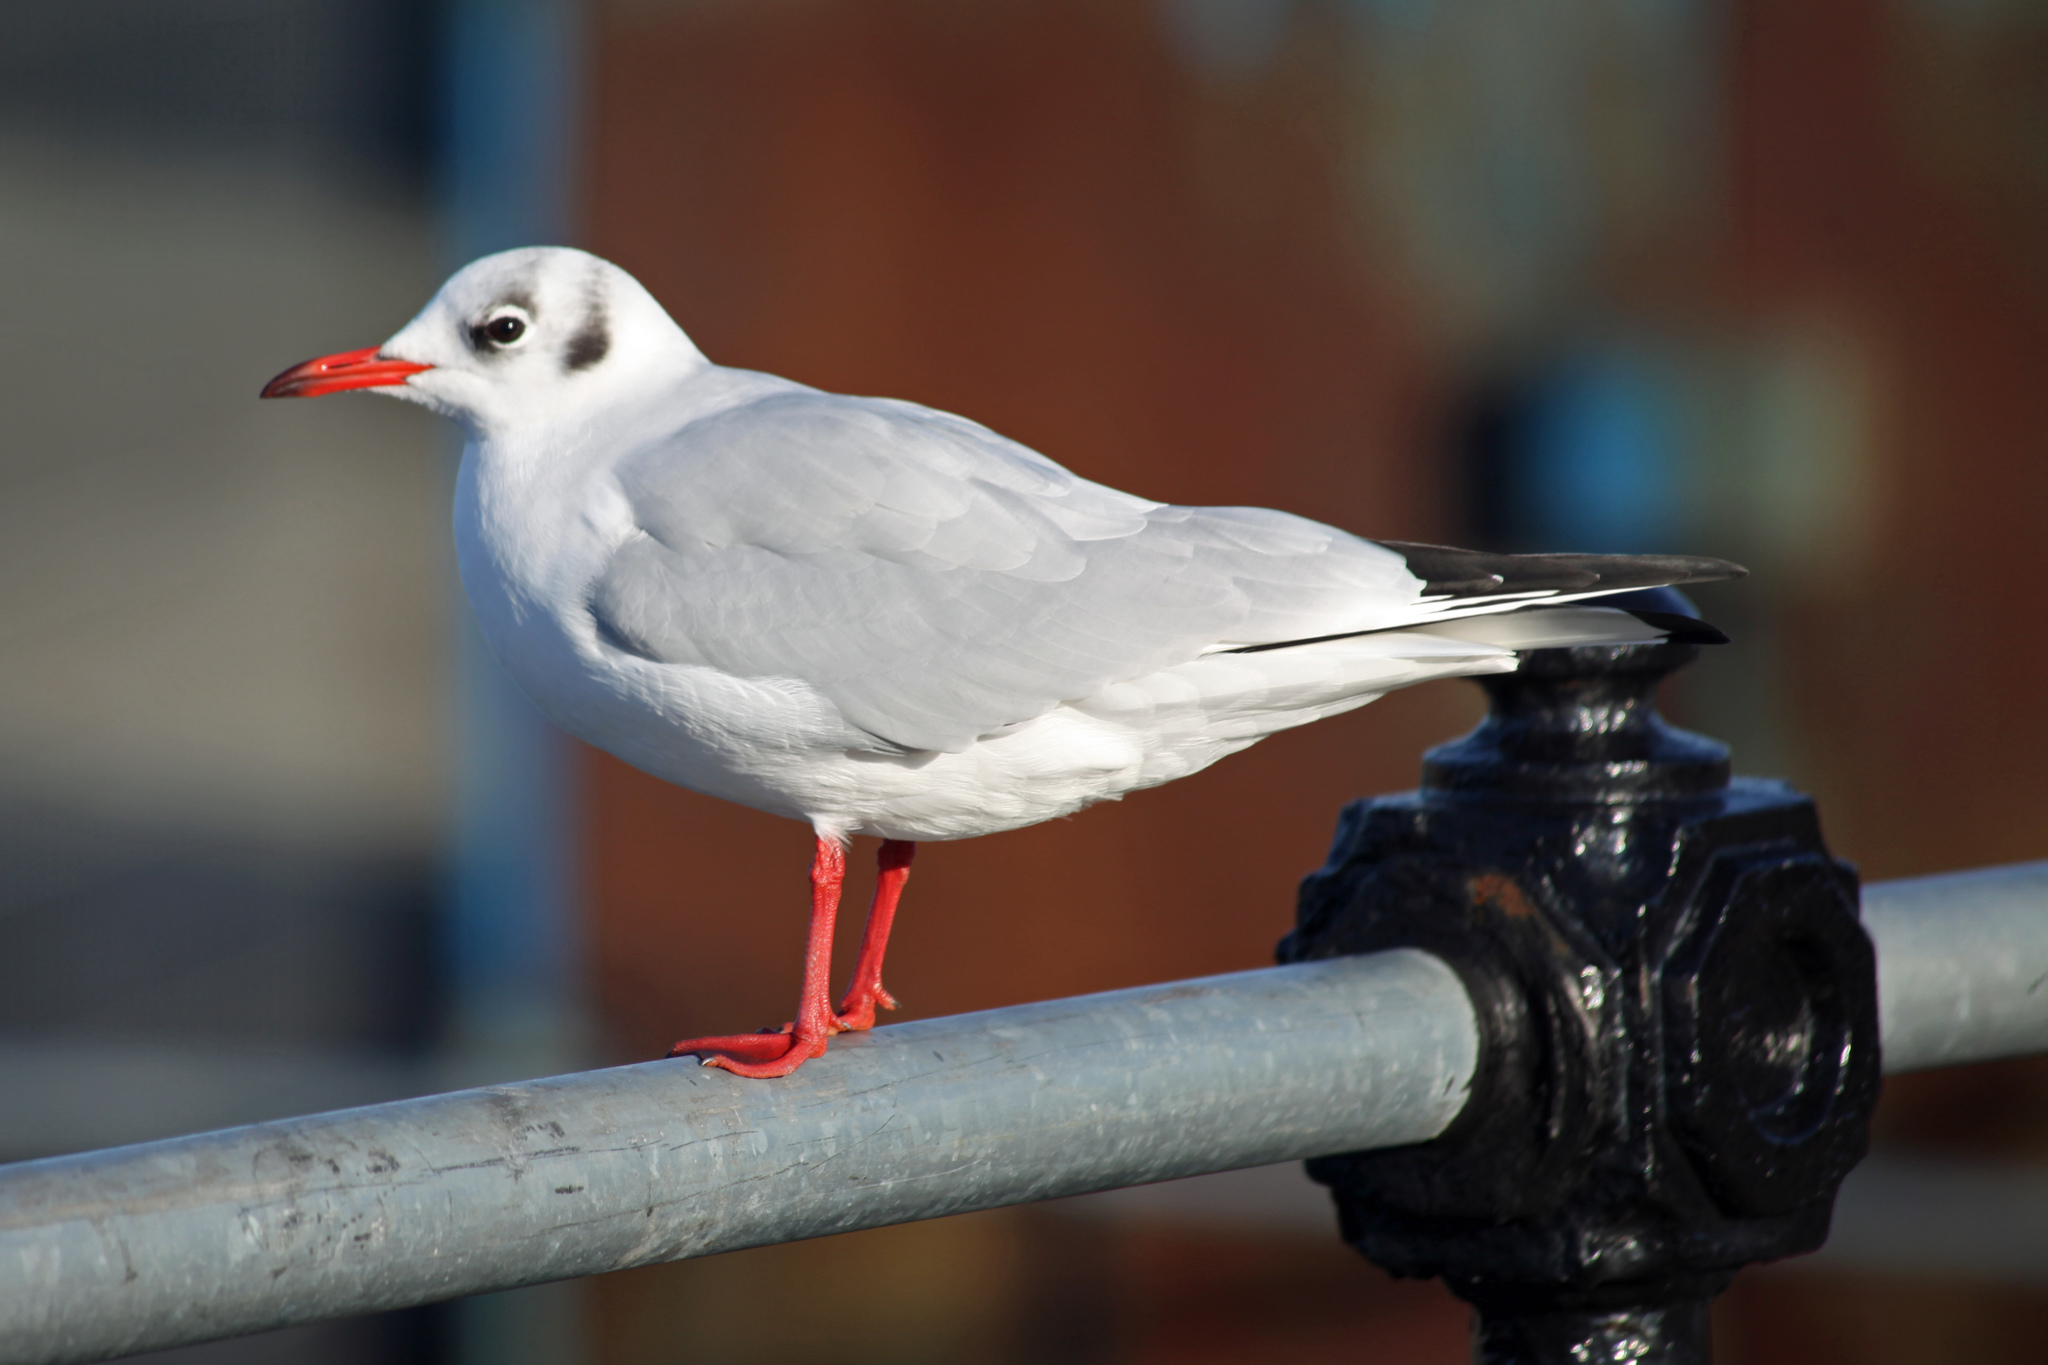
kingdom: Animalia
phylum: Chordata
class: Aves
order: Charadriiformes
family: Laridae
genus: Chroicocephalus
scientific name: Chroicocephalus ridibundus
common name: Black-headed gull
